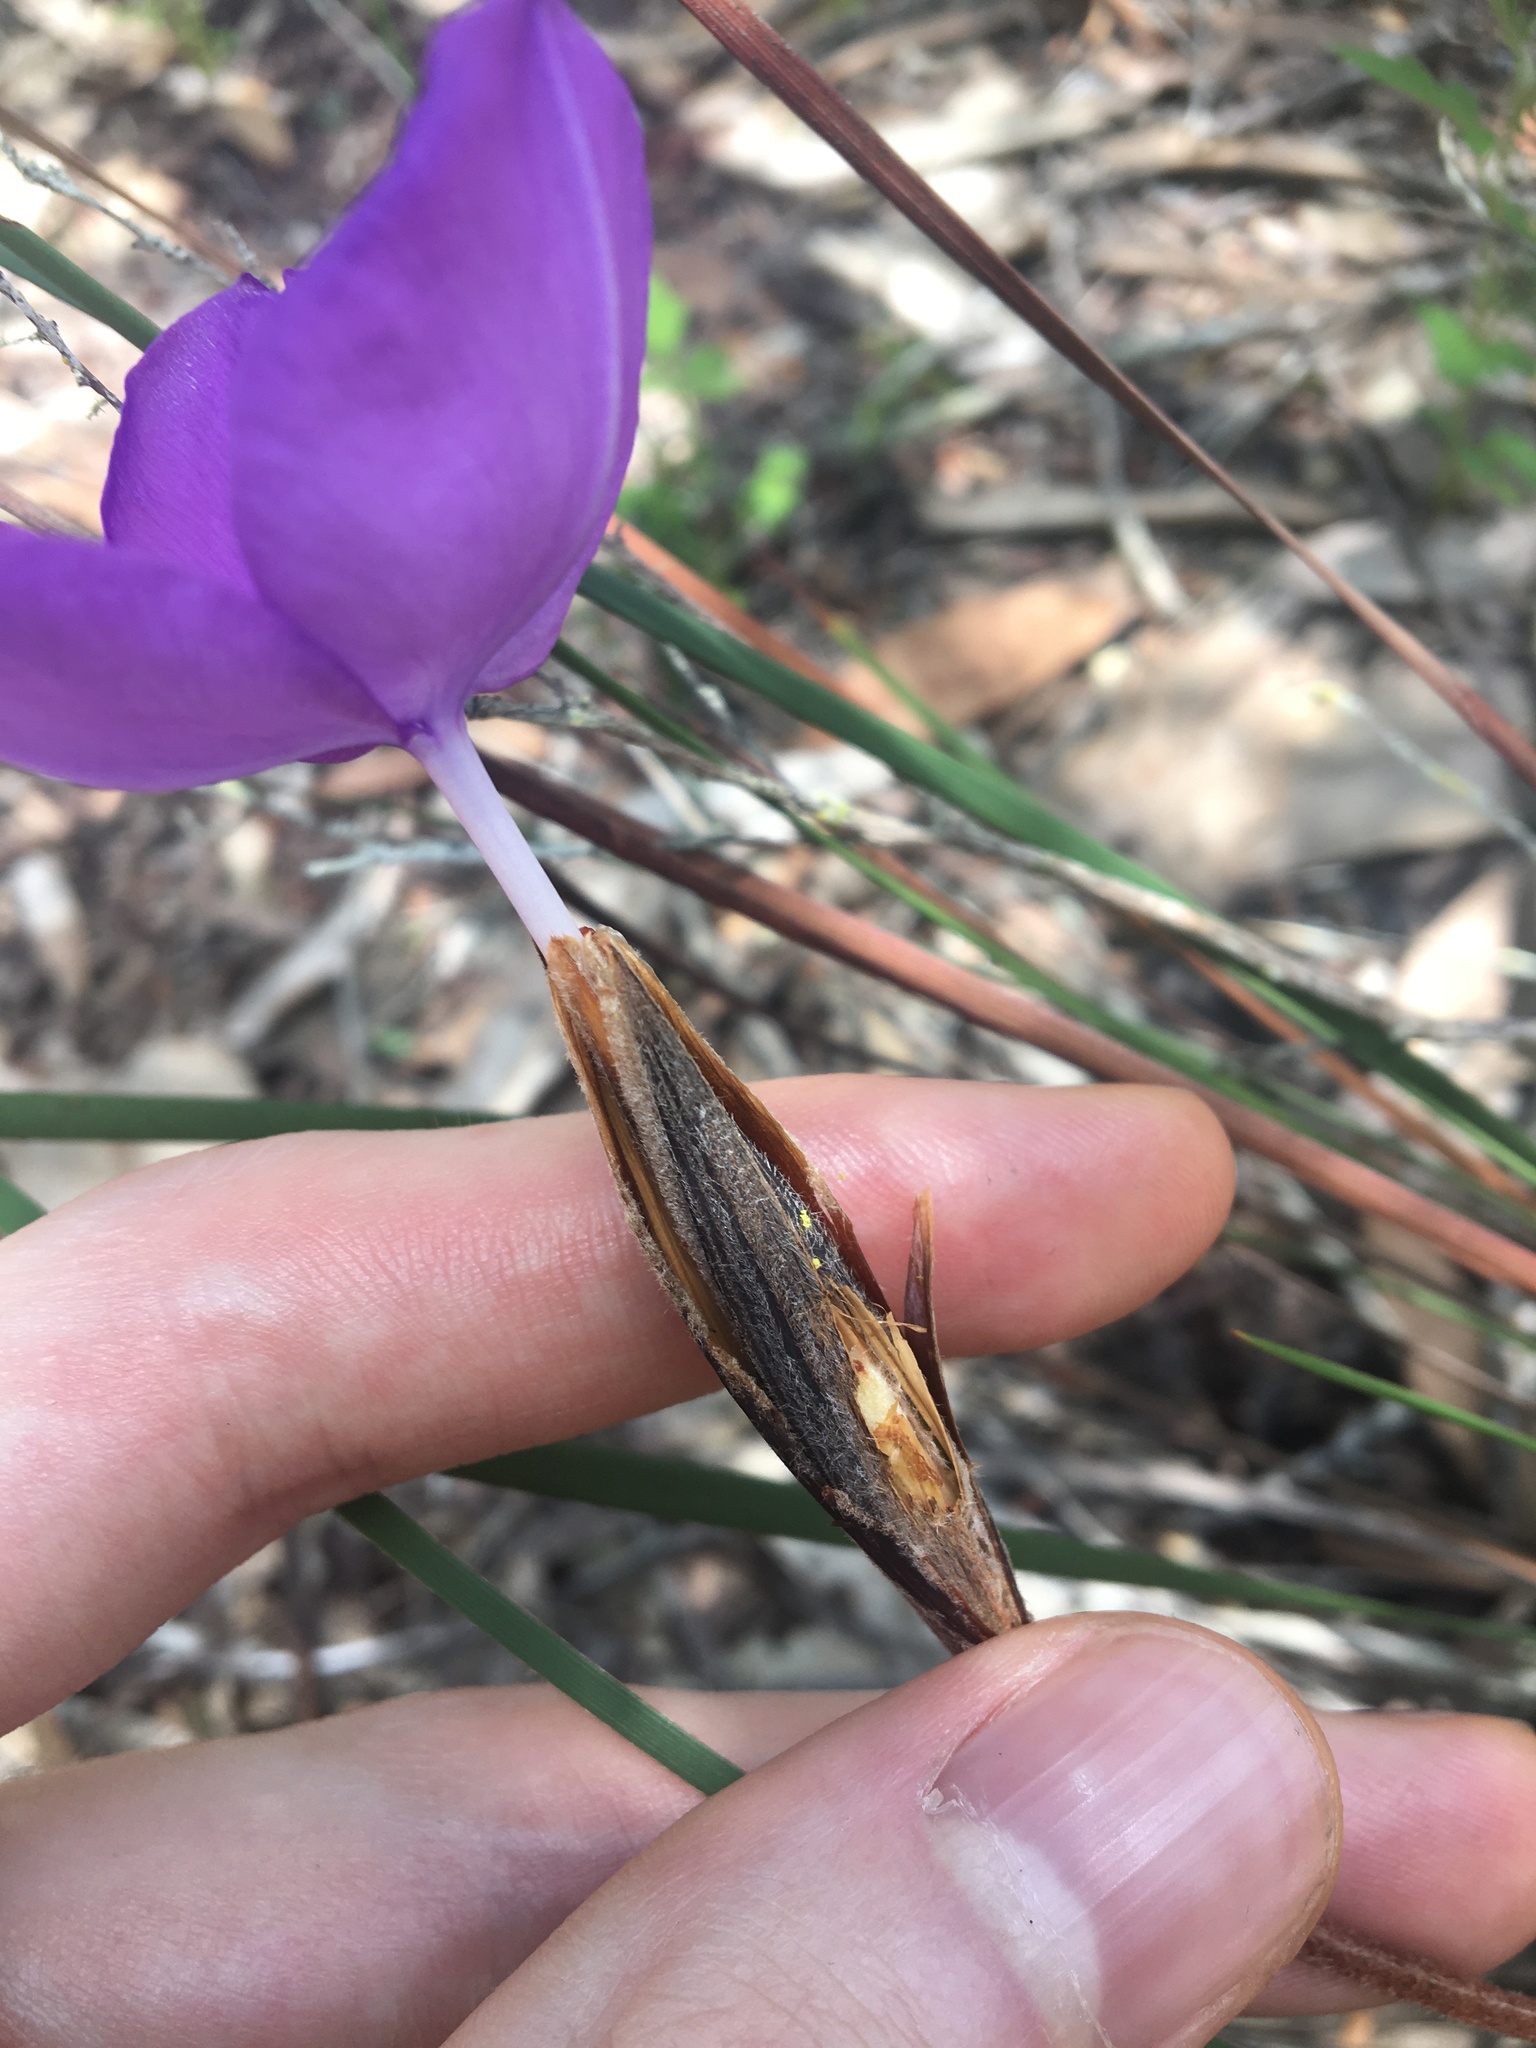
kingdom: Plantae
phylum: Tracheophyta
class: Liliopsida
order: Asparagales
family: Iridaceae
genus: Patersonia
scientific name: Patersonia sericea
